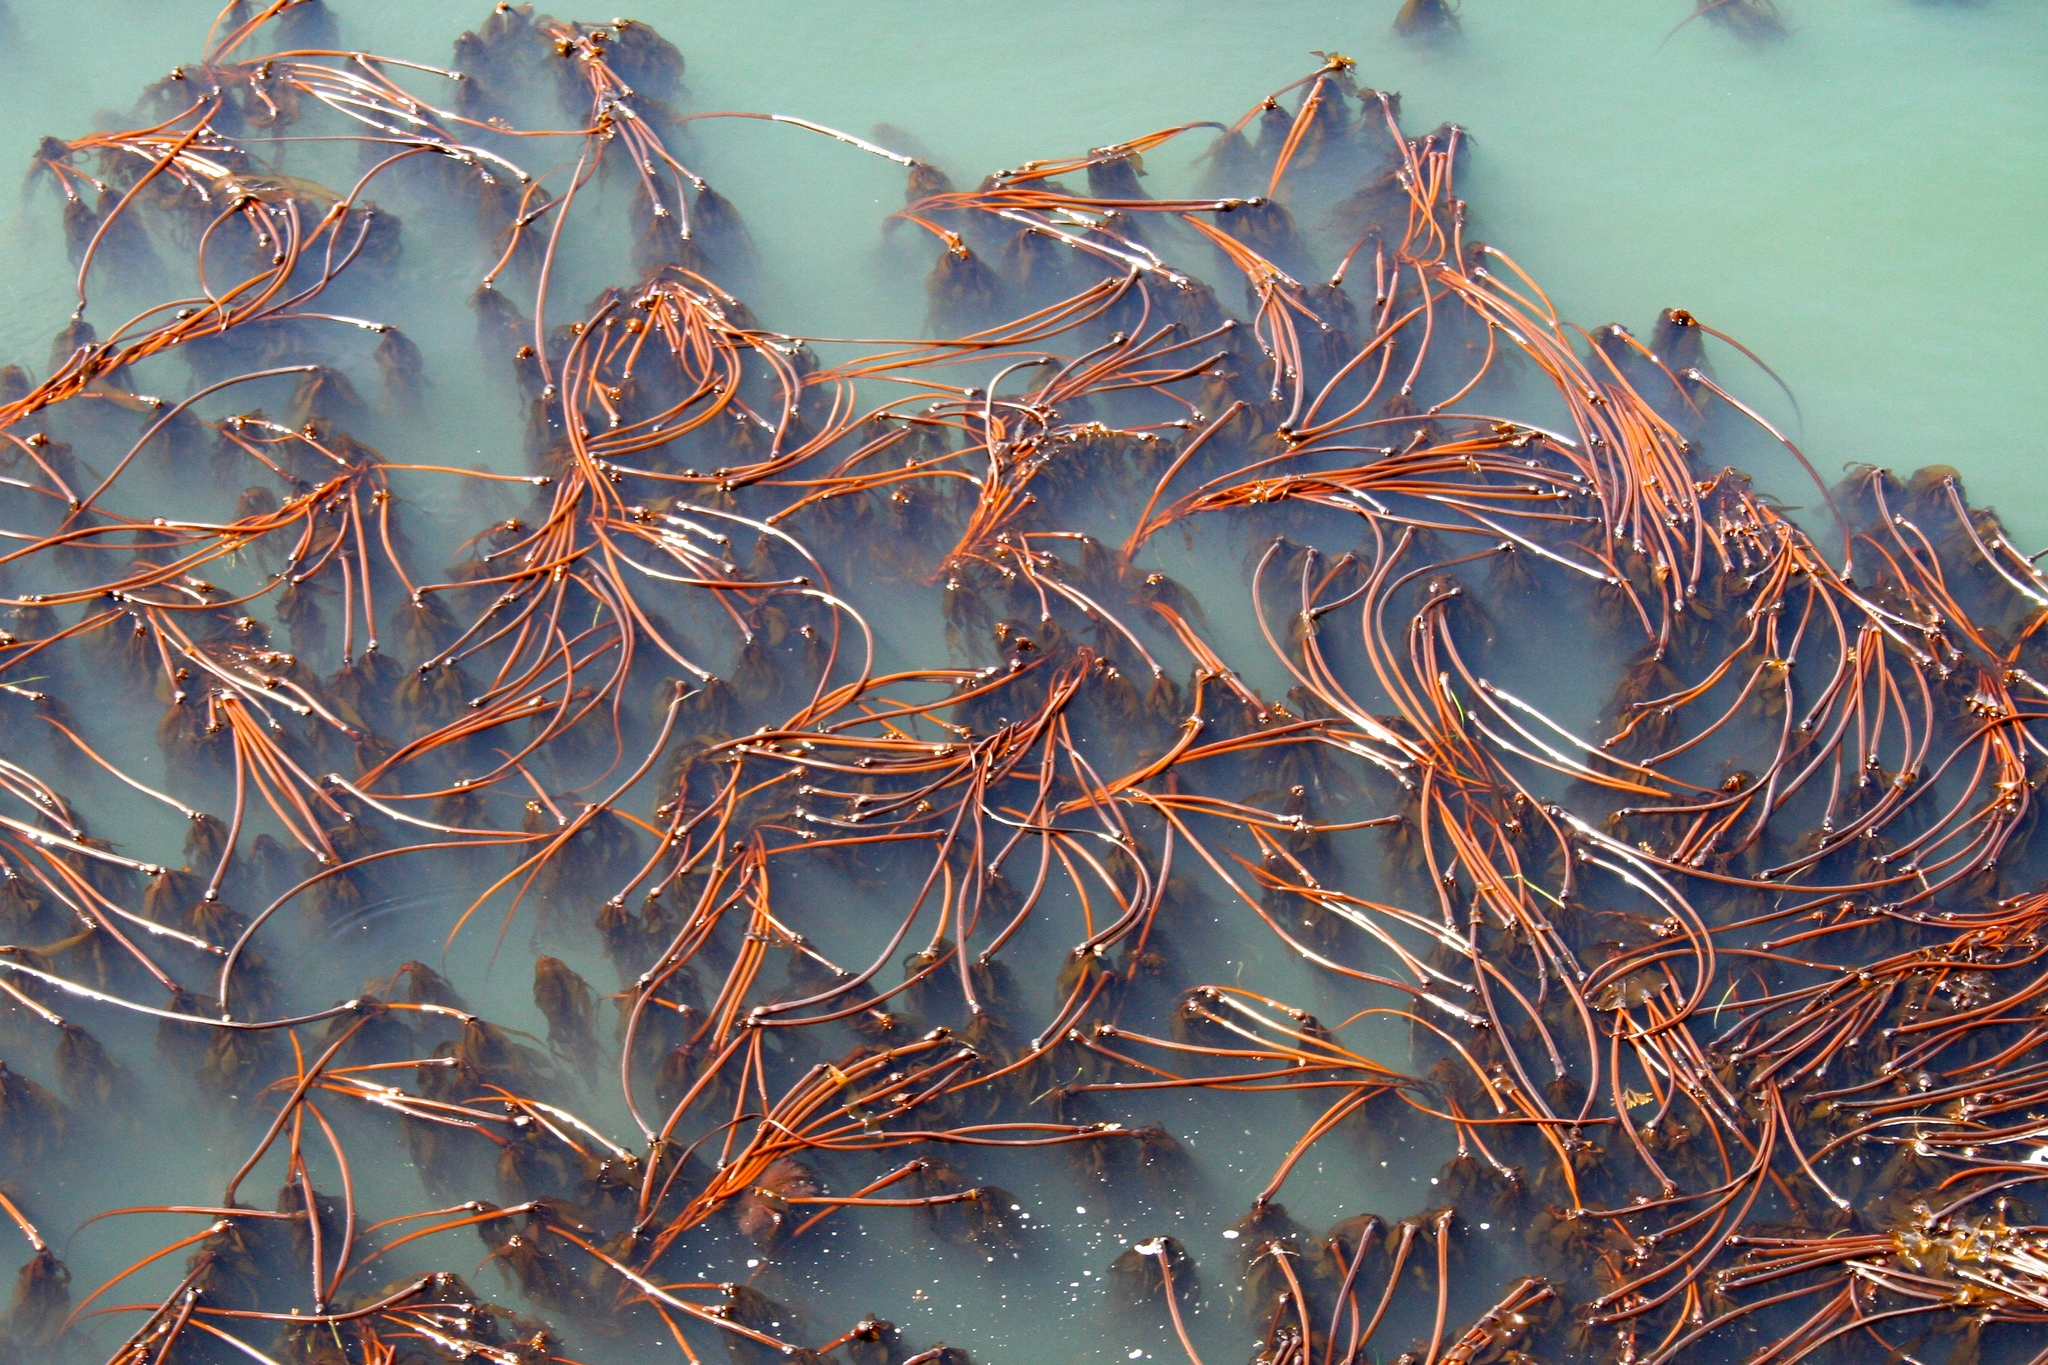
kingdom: Chromista
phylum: Ochrophyta
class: Phaeophyceae
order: Laminariales
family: Laminariaceae
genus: Nereocystis
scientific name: Nereocystis luetkeana
